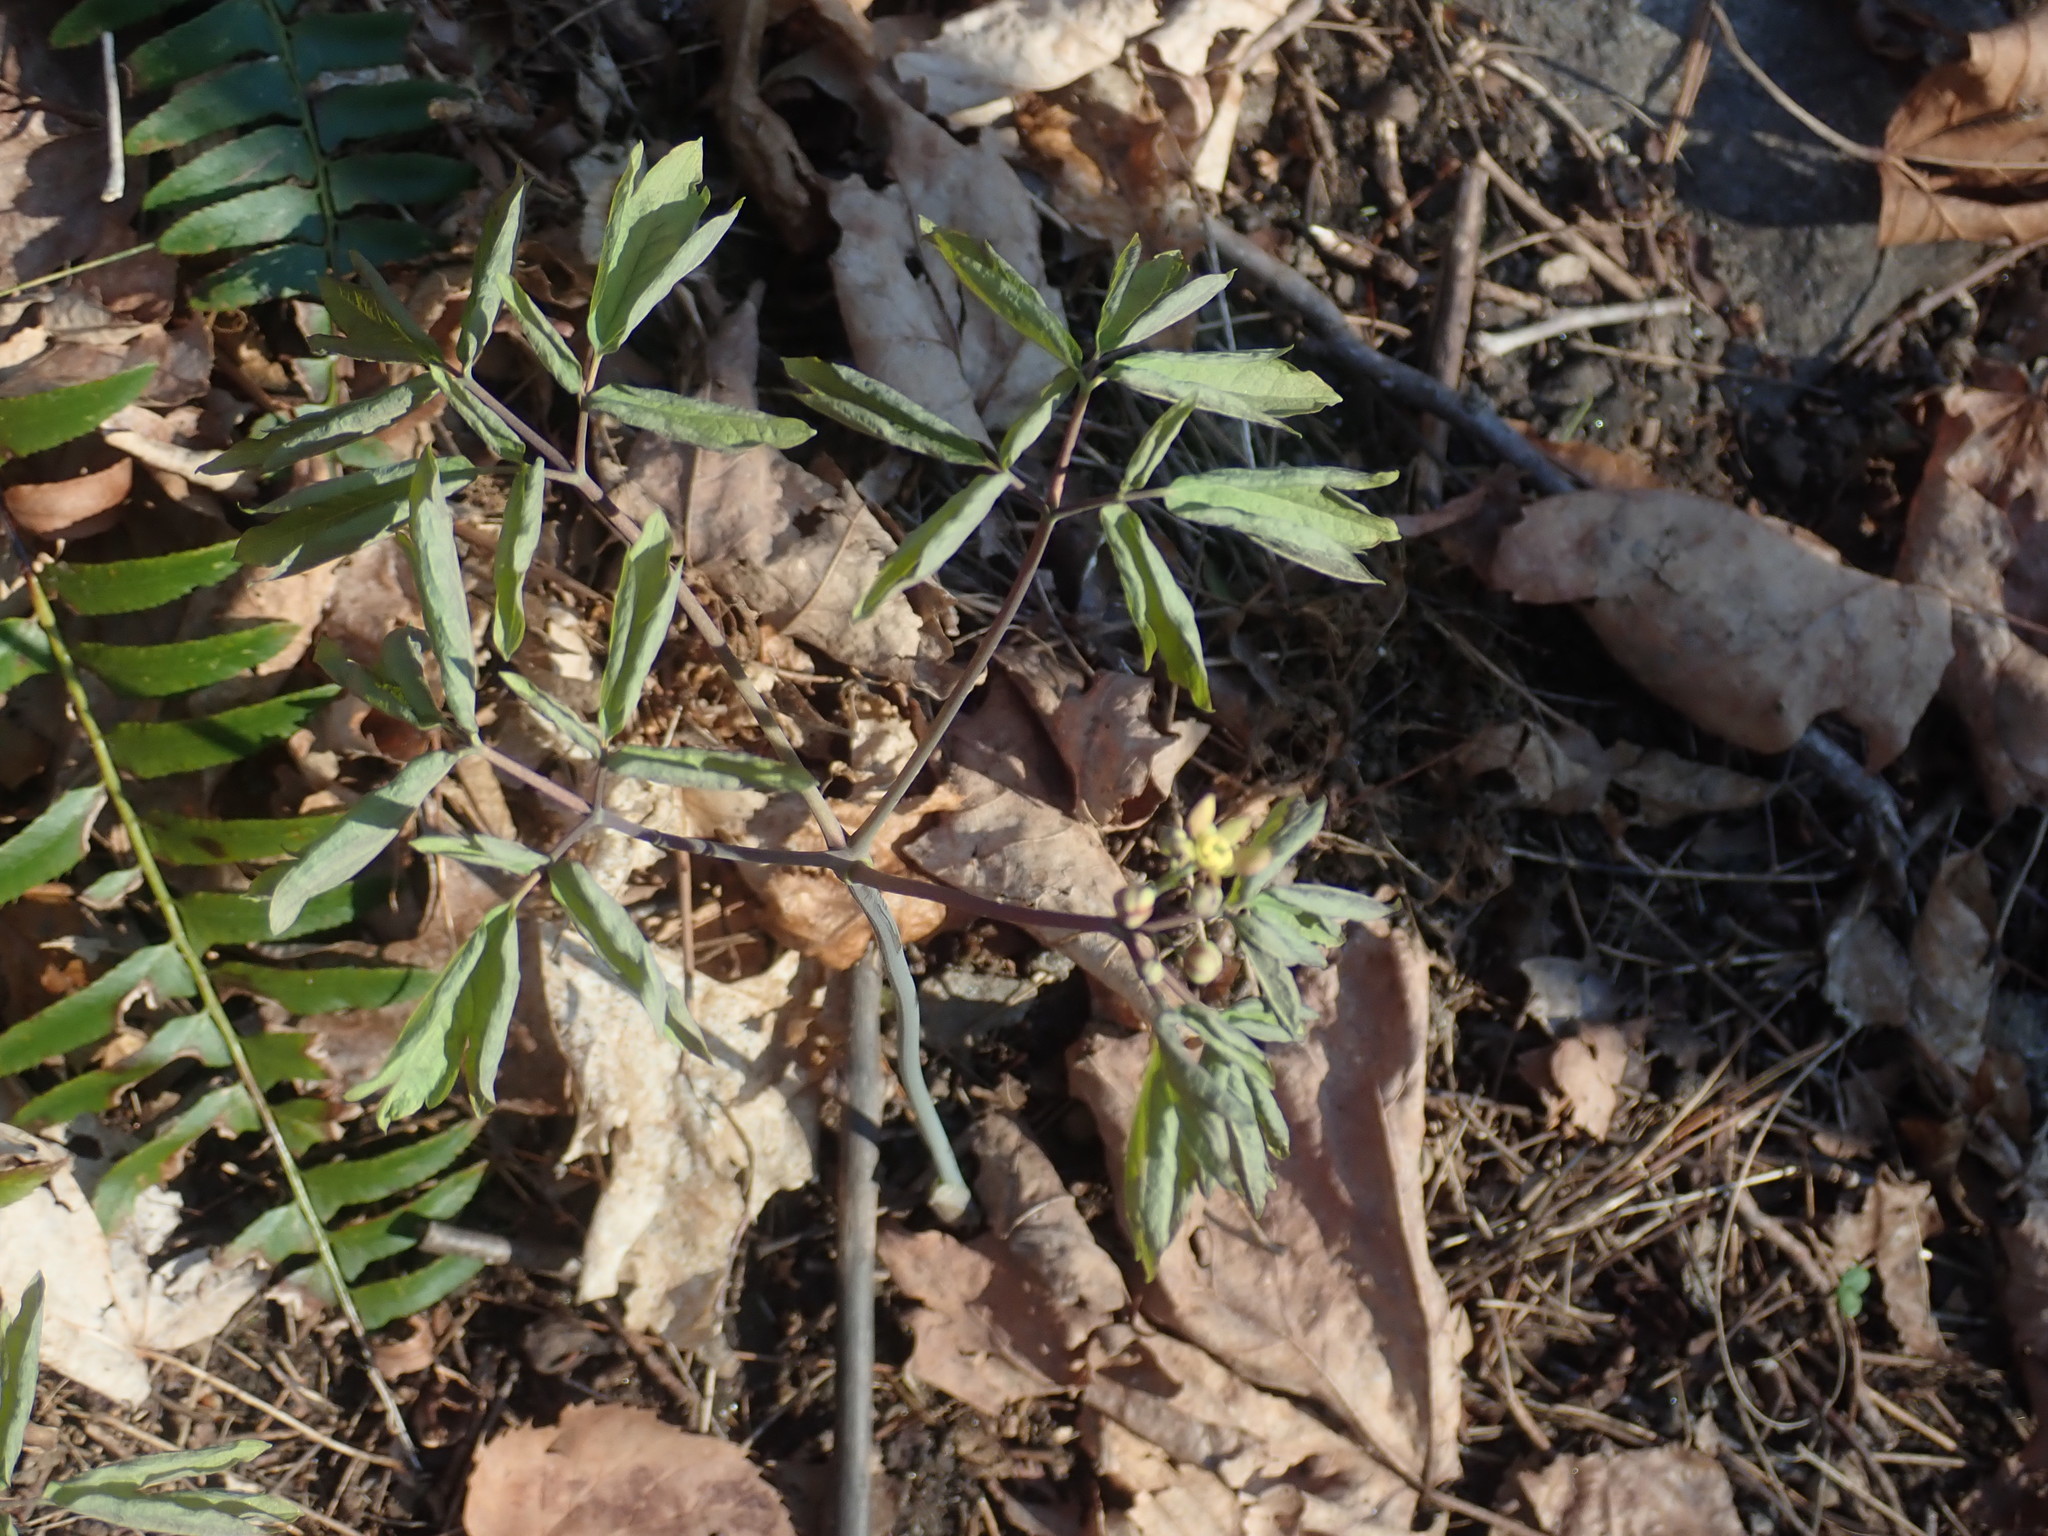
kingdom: Plantae
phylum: Tracheophyta
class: Magnoliopsida
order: Ranunculales
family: Berberidaceae
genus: Caulophyllum
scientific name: Caulophyllum thalictroides
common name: Blue cohosh
